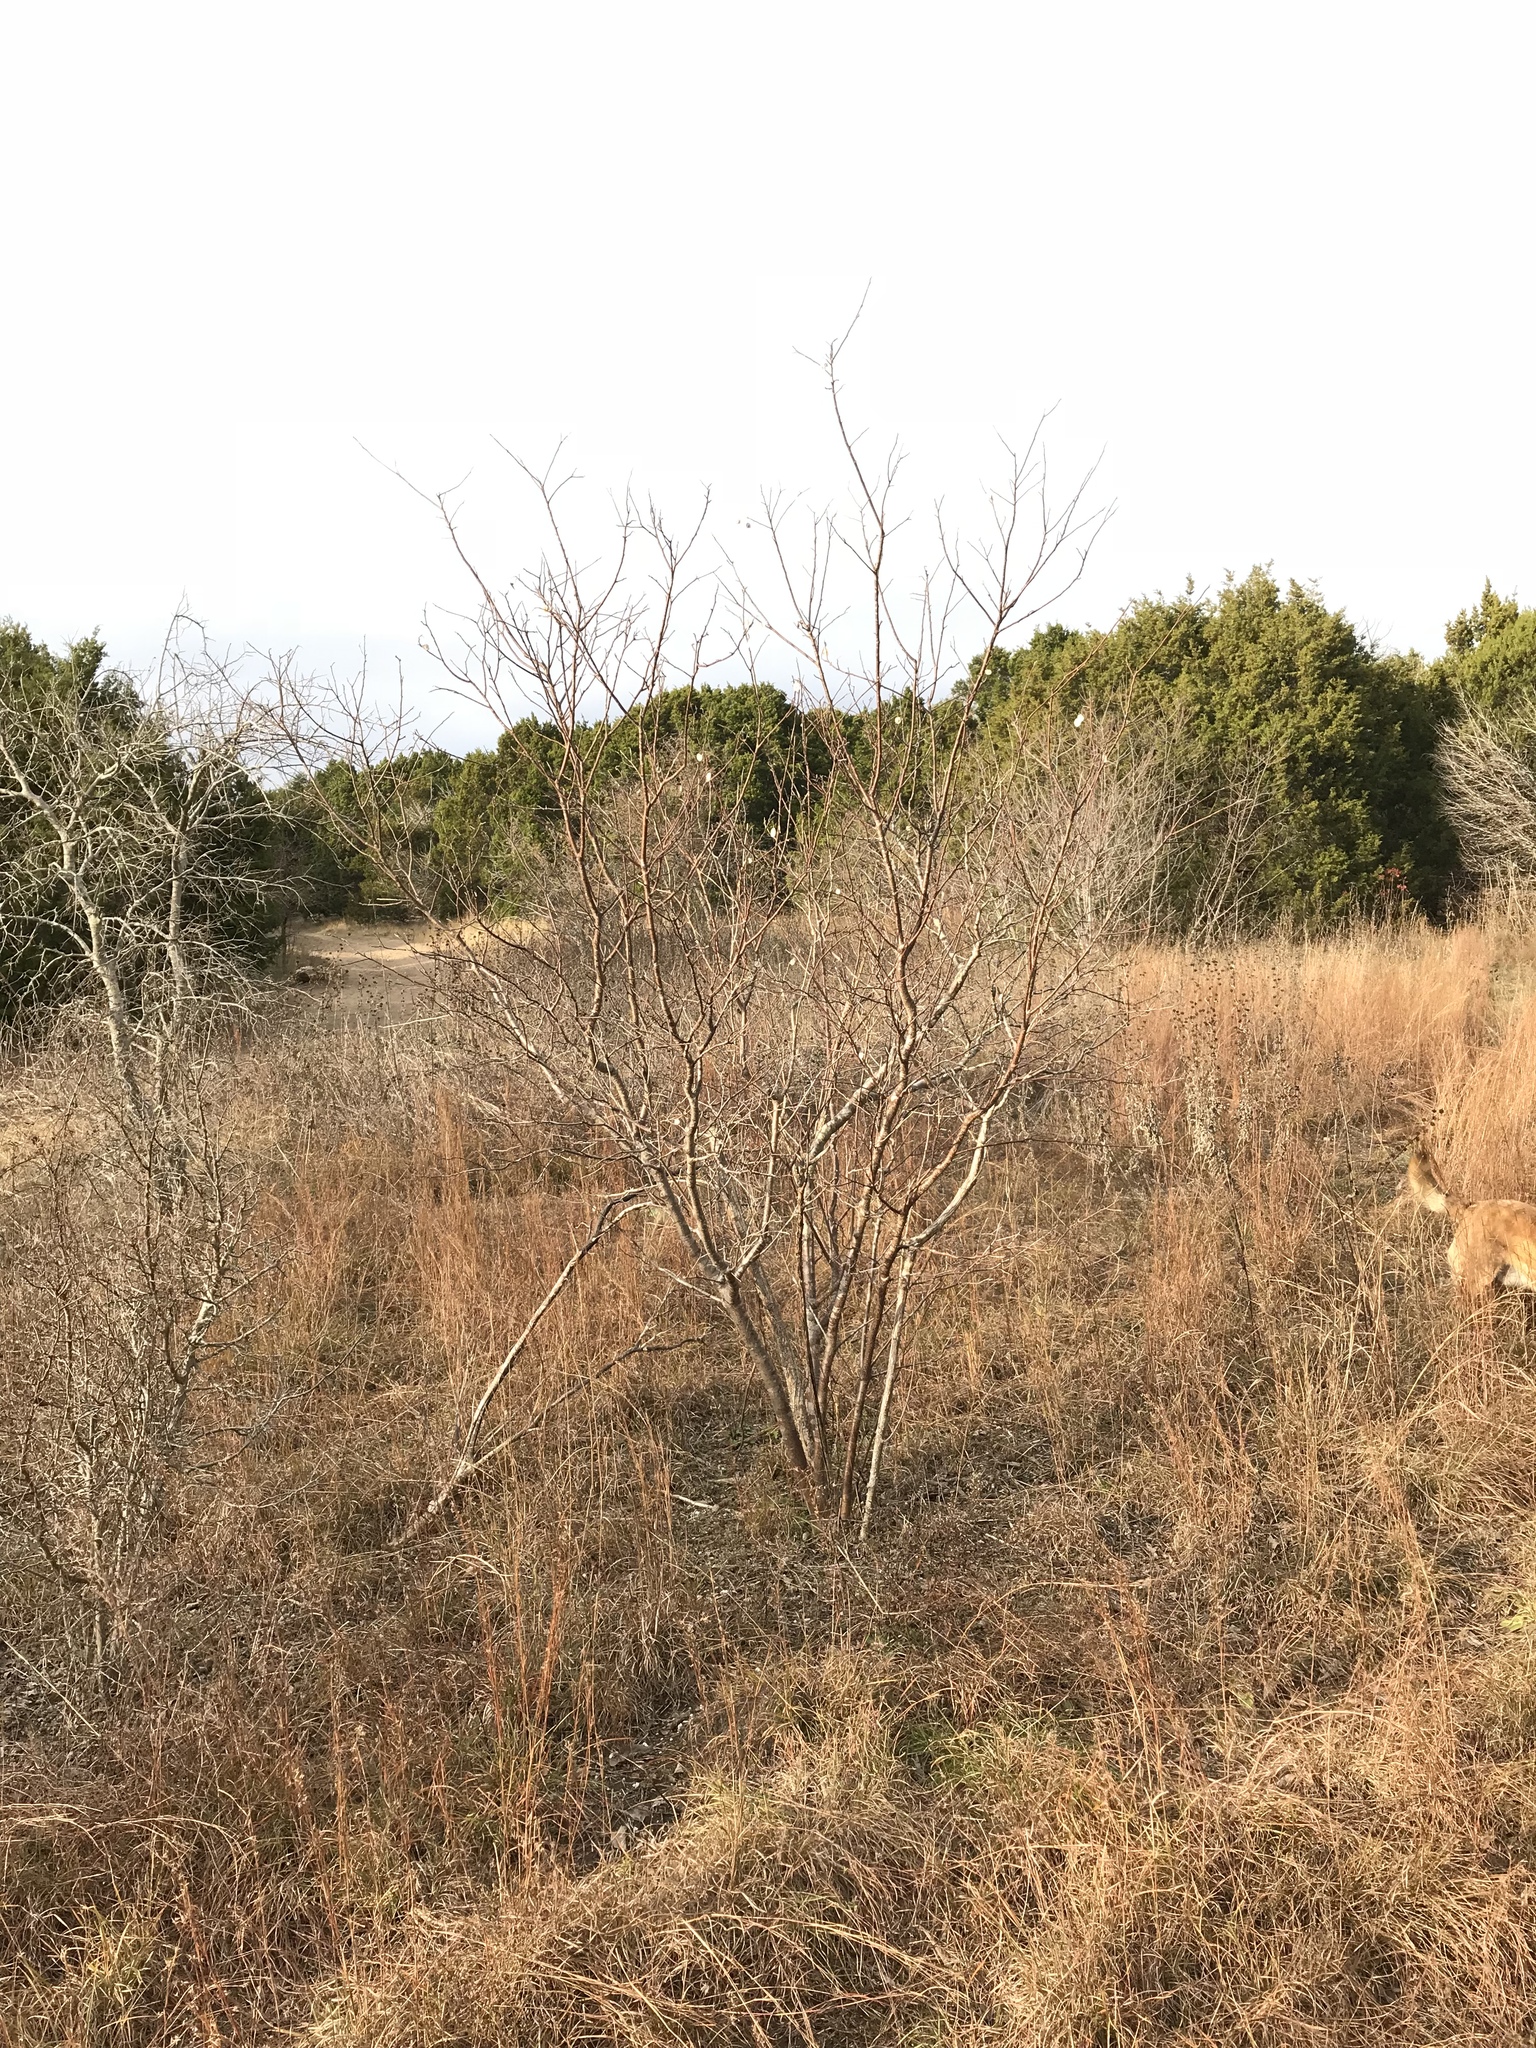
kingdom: Plantae
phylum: Tracheophyta
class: Magnoliopsida
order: Sapindales
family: Rutaceae
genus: Ptelea
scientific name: Ptelea trifoliata
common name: Common hop-tree
